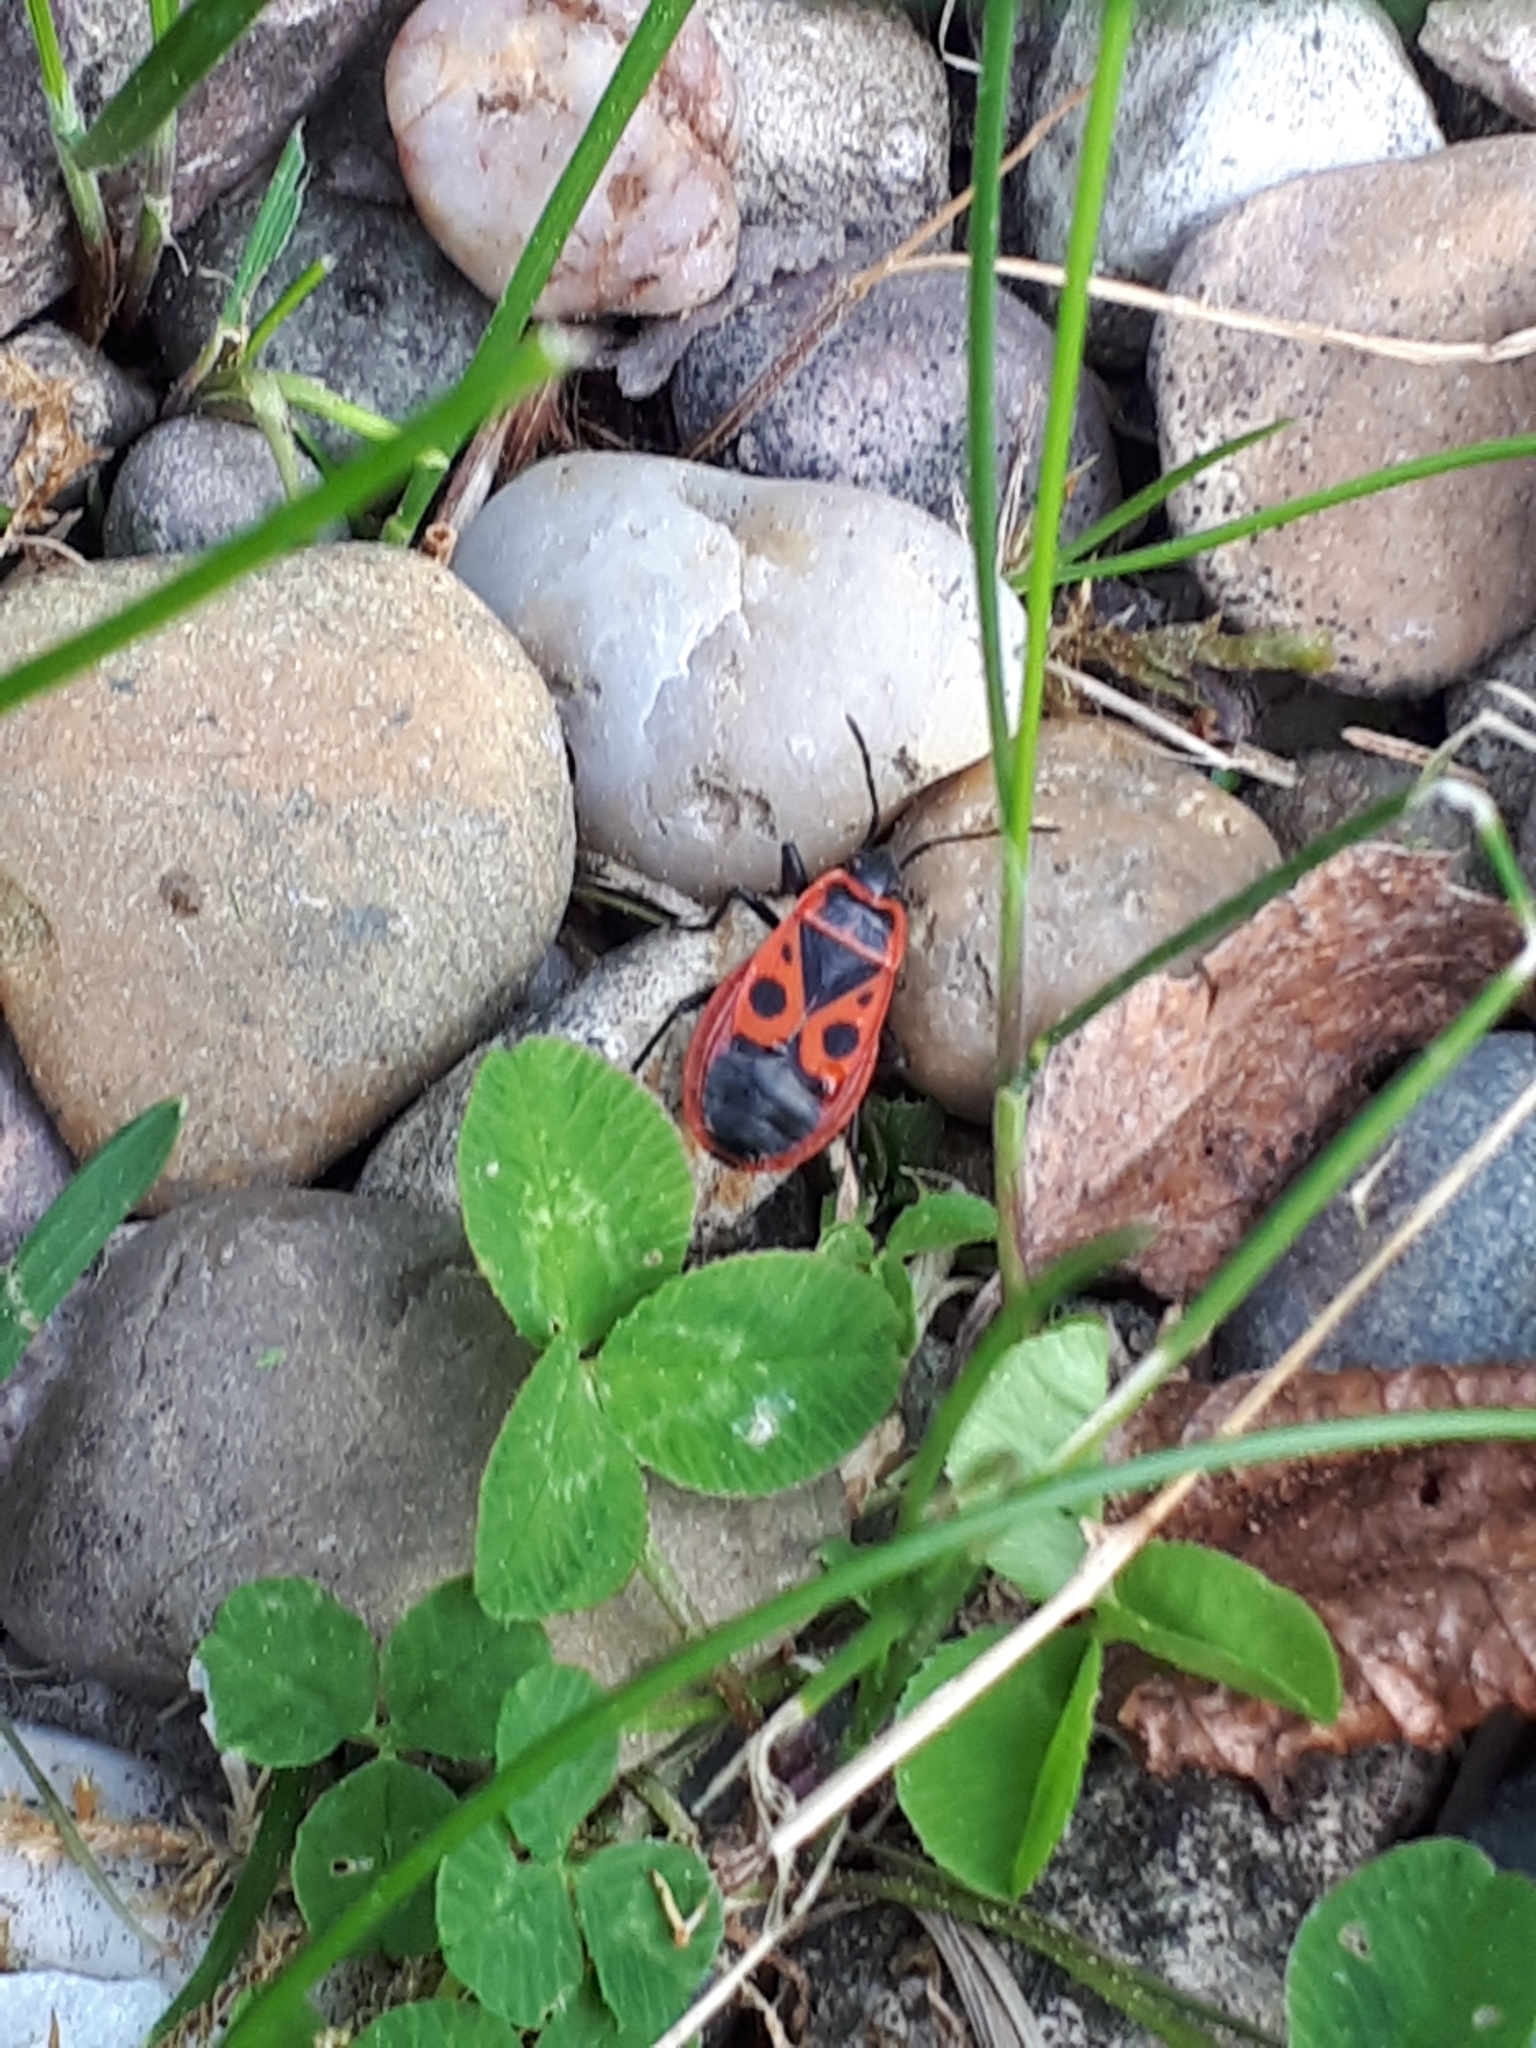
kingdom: Animalia
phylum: Arthropoda
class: Insecta
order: Hemiptera
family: Pyrrhocoridae
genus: Pyrrhocoris
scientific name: Pyrrhocoris apterus
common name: Firebug
